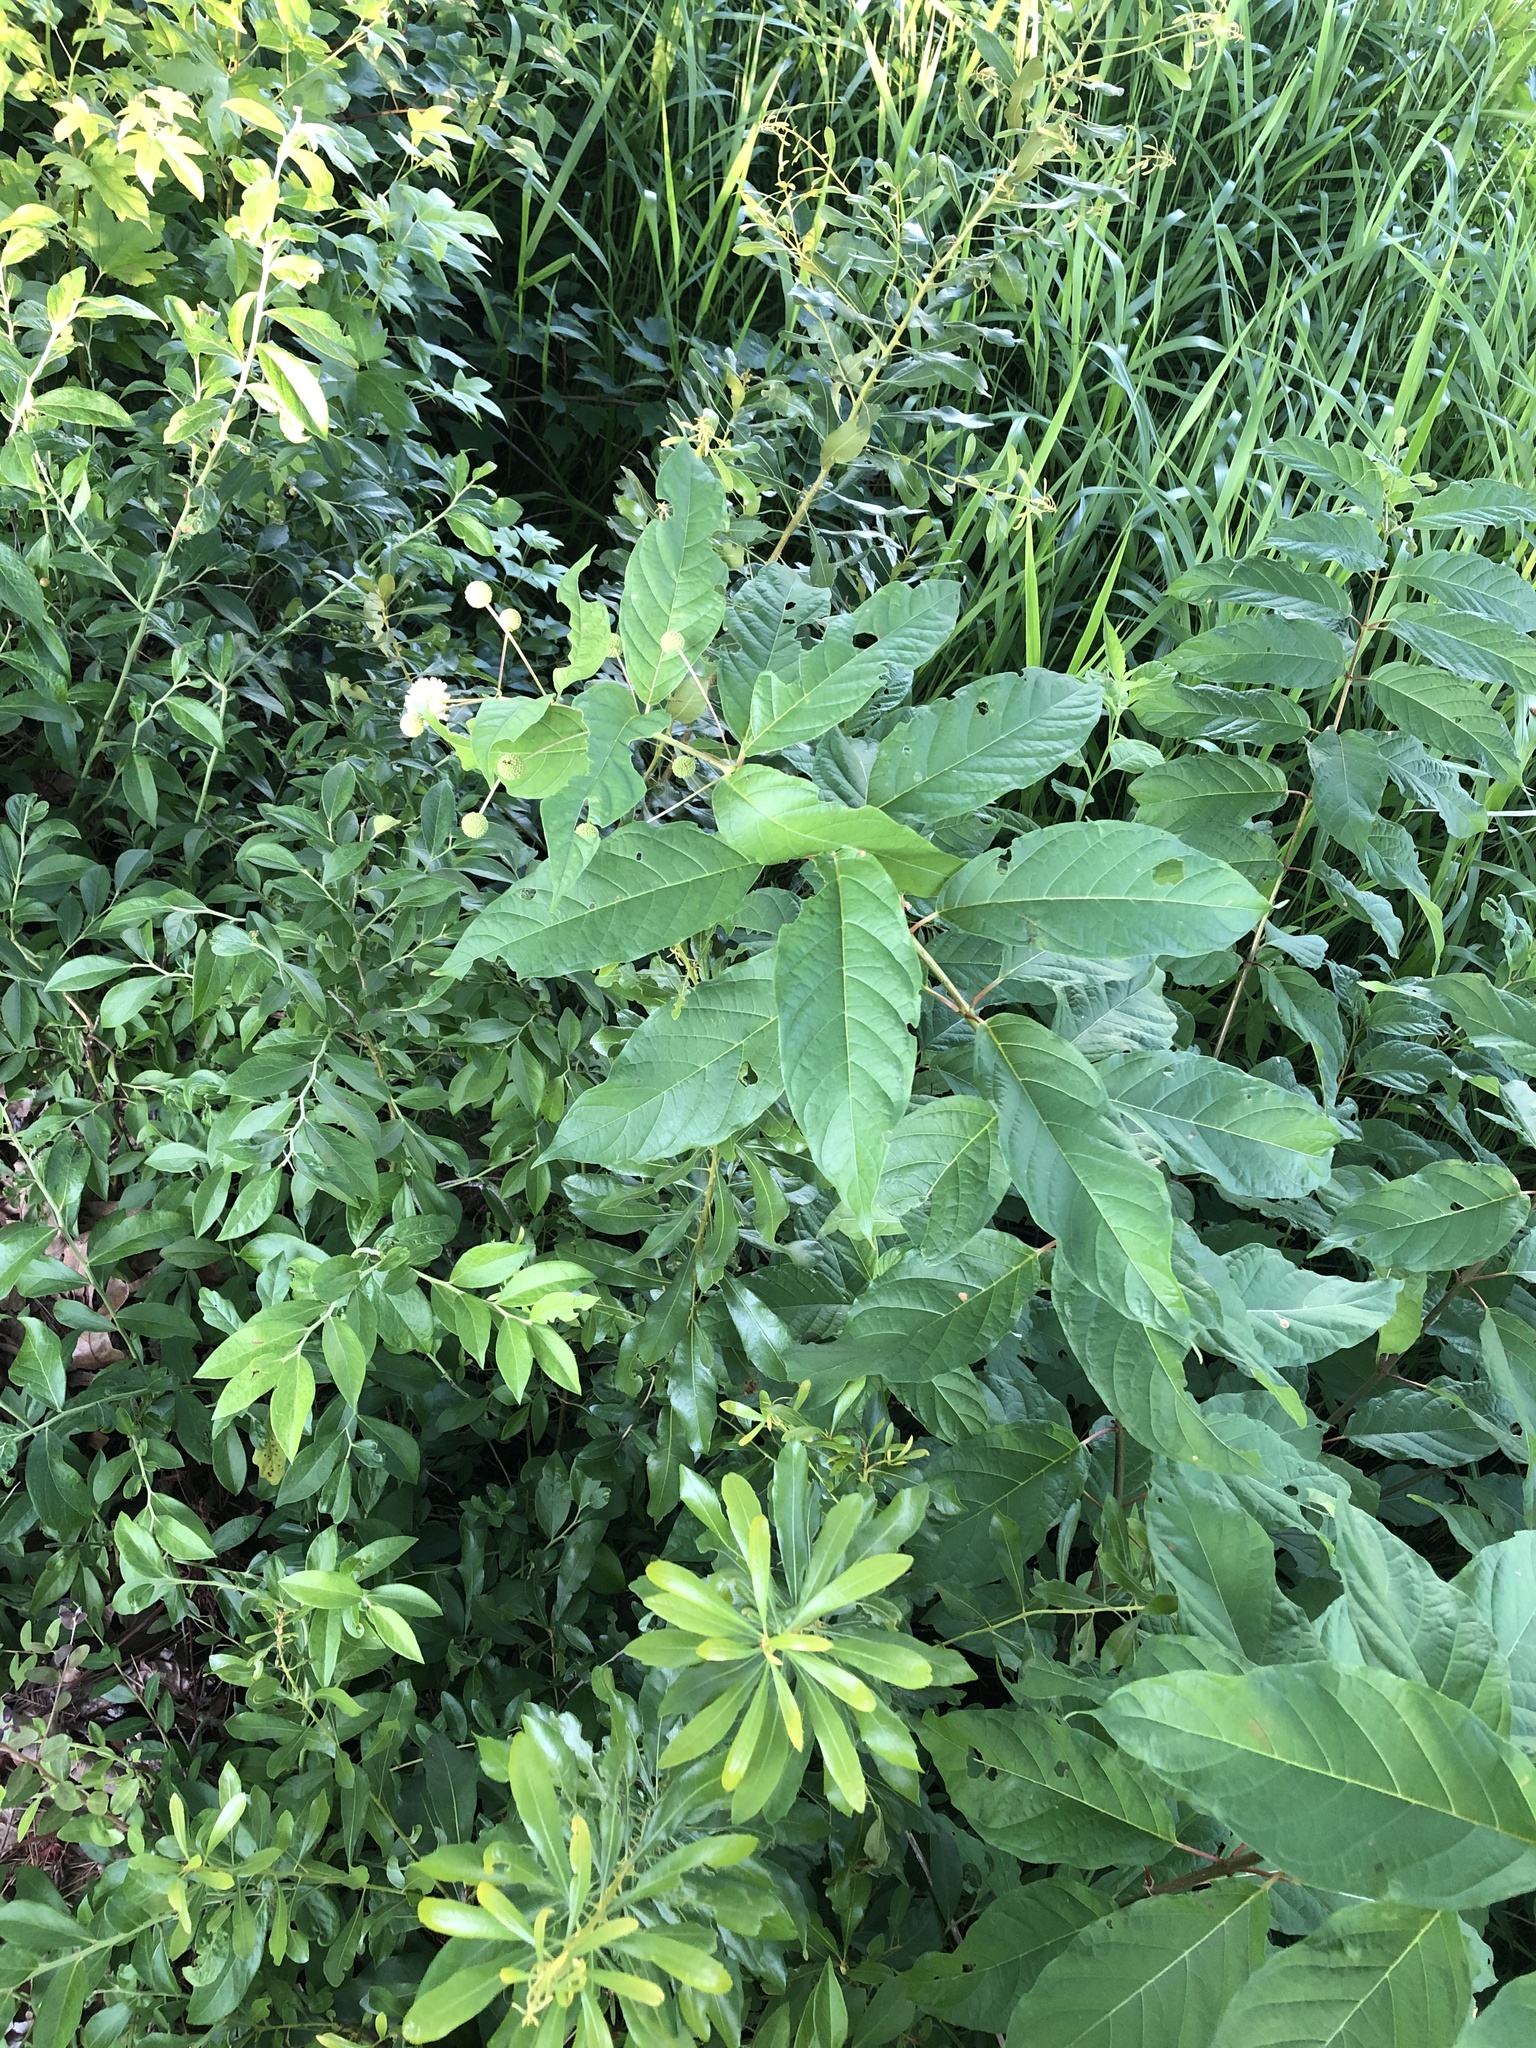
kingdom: Plantae
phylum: Tracheophyta
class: Magnoliopsida
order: Gentianales
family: Rubiaceae
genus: Cephalanthus
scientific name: Cephalanthus occidentalis
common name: Button-willow
